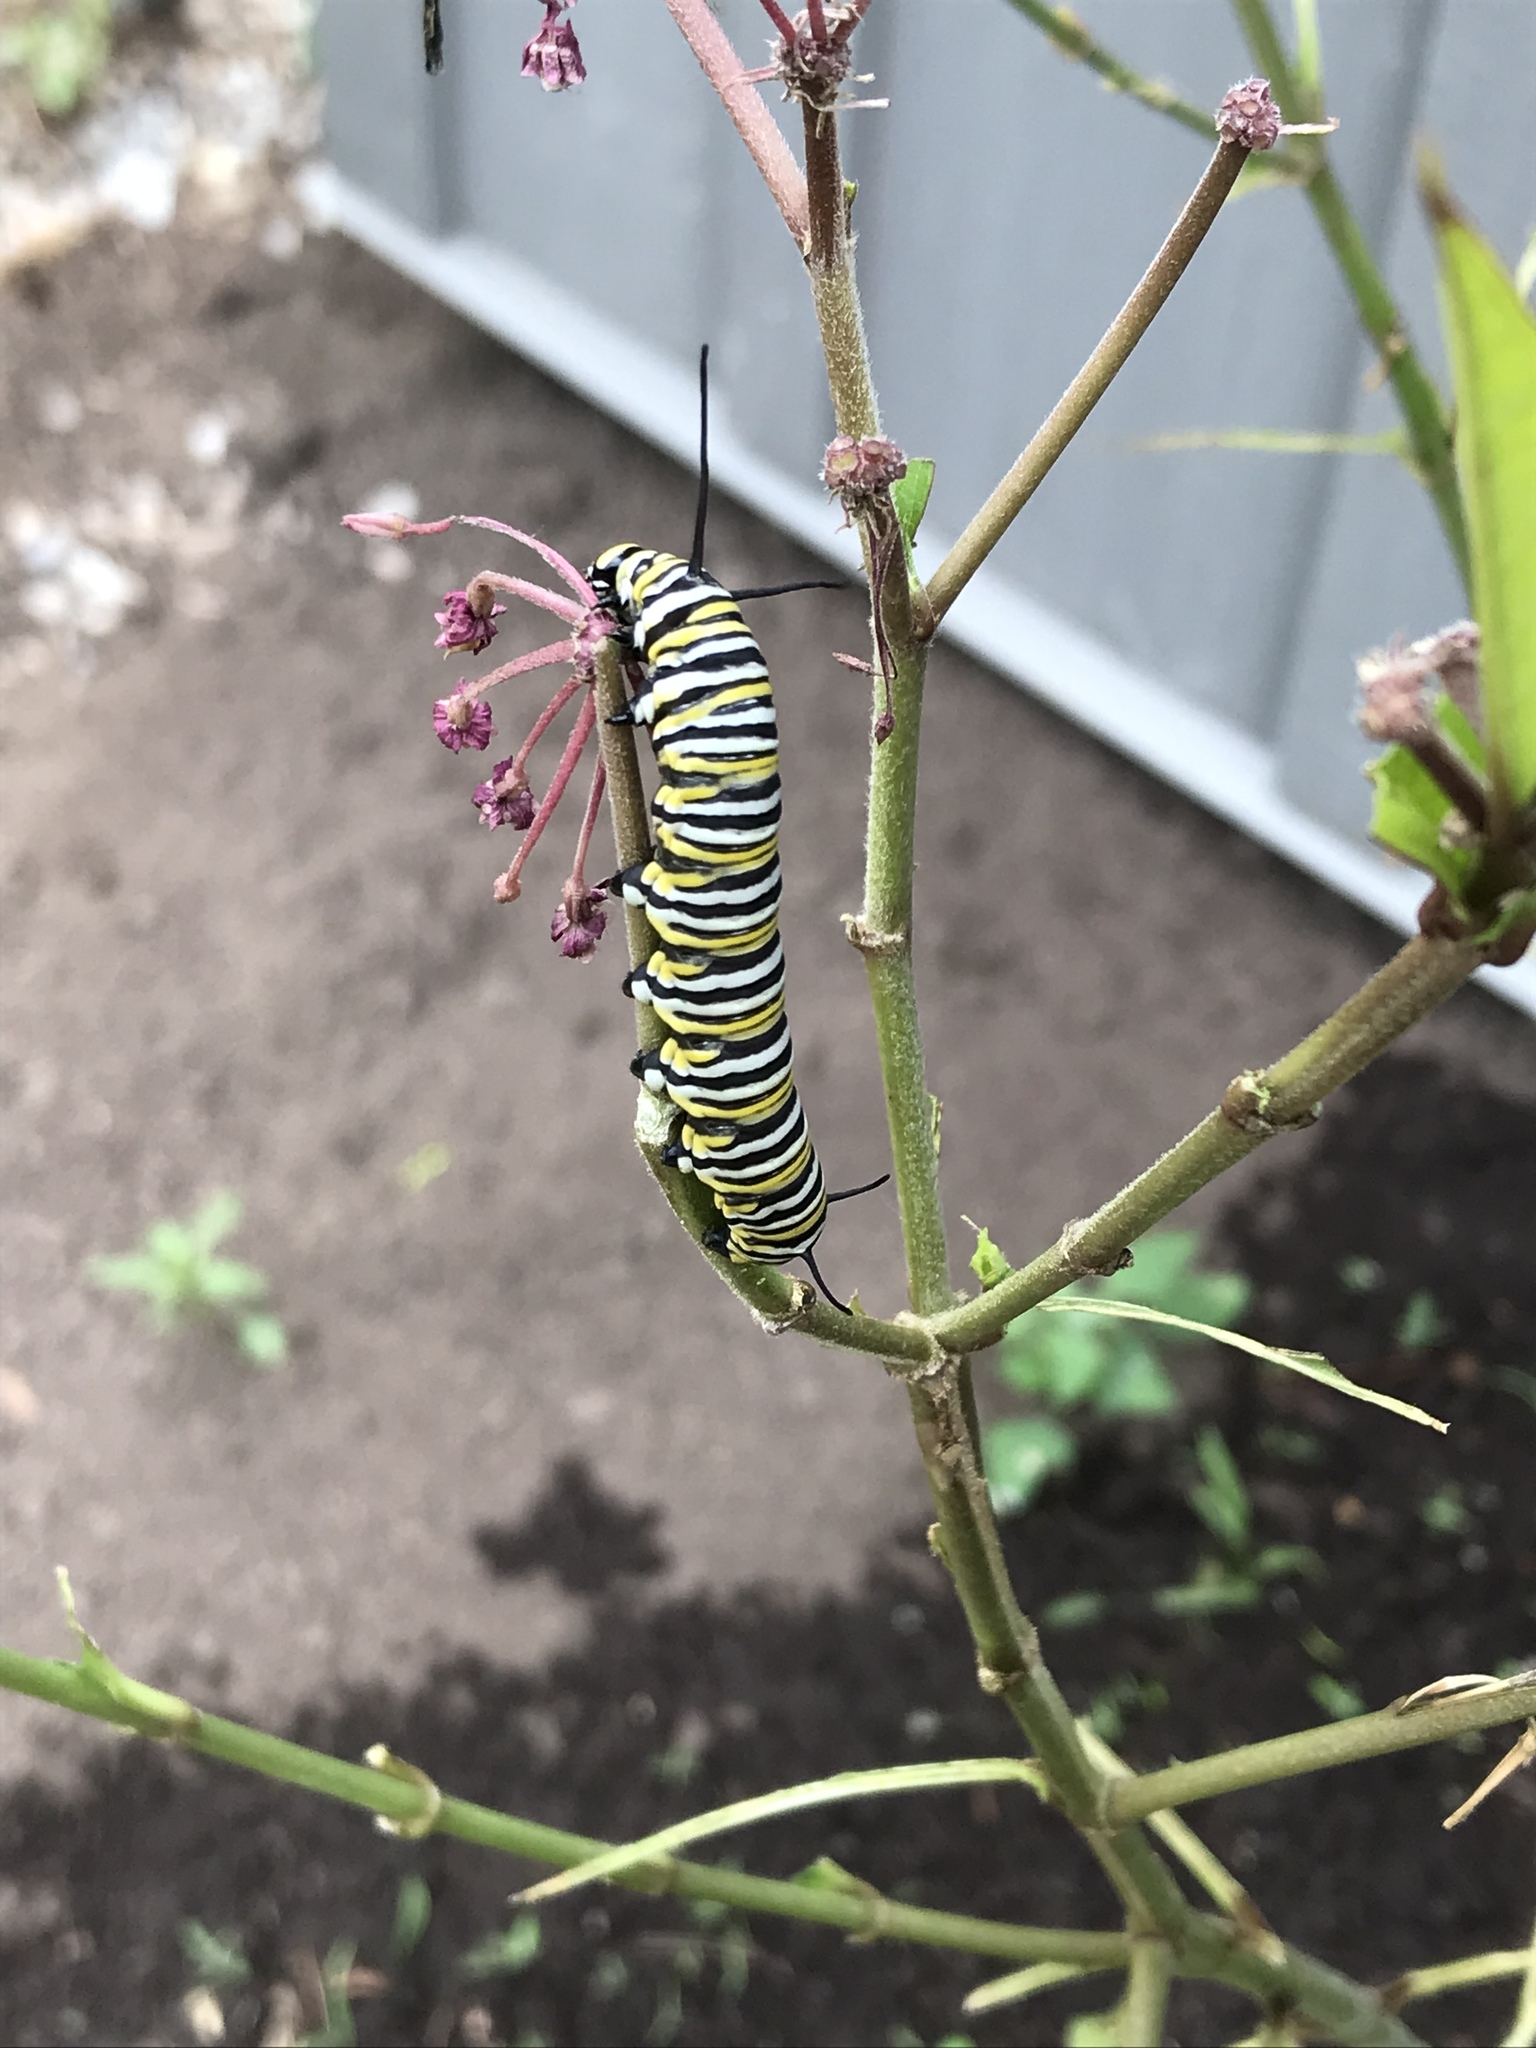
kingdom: Animalia
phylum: Arthropoda
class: Insecta
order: Lepidoptera
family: Nymphalidae
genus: Danaus
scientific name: Danaus plexippus
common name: Monarch
